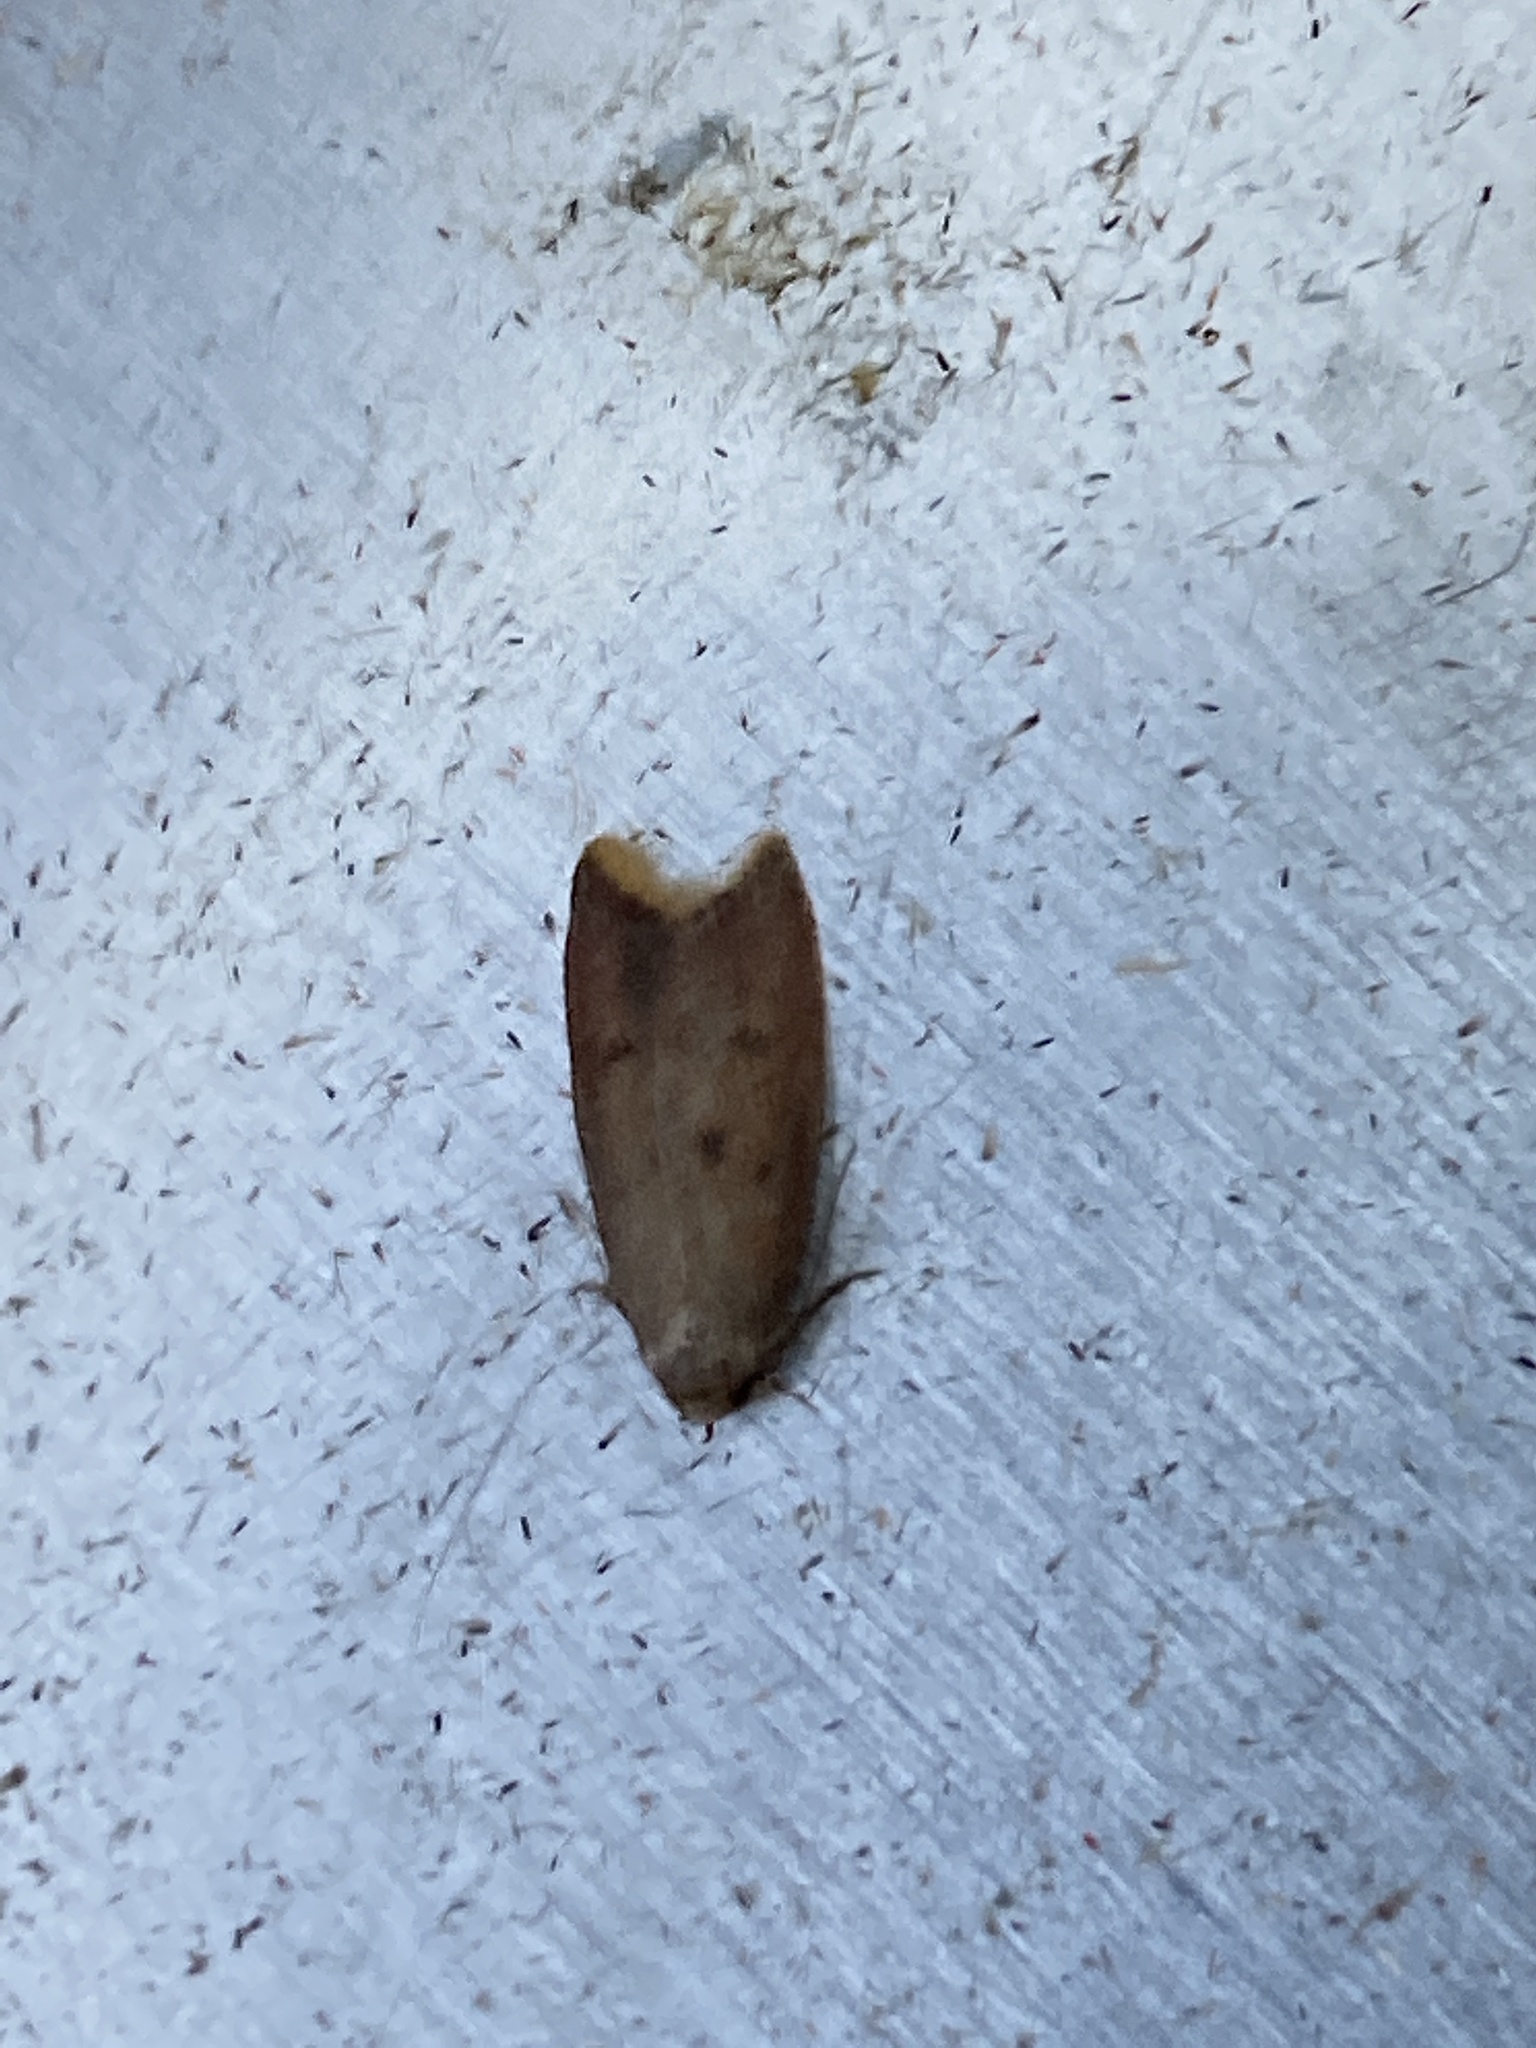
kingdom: Animalia
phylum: Arthropoda
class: Insecta
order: Lepidoptera
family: Oecophoridae
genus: Tachystola
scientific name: Tachystola acroxantha
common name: Ruddy streak
